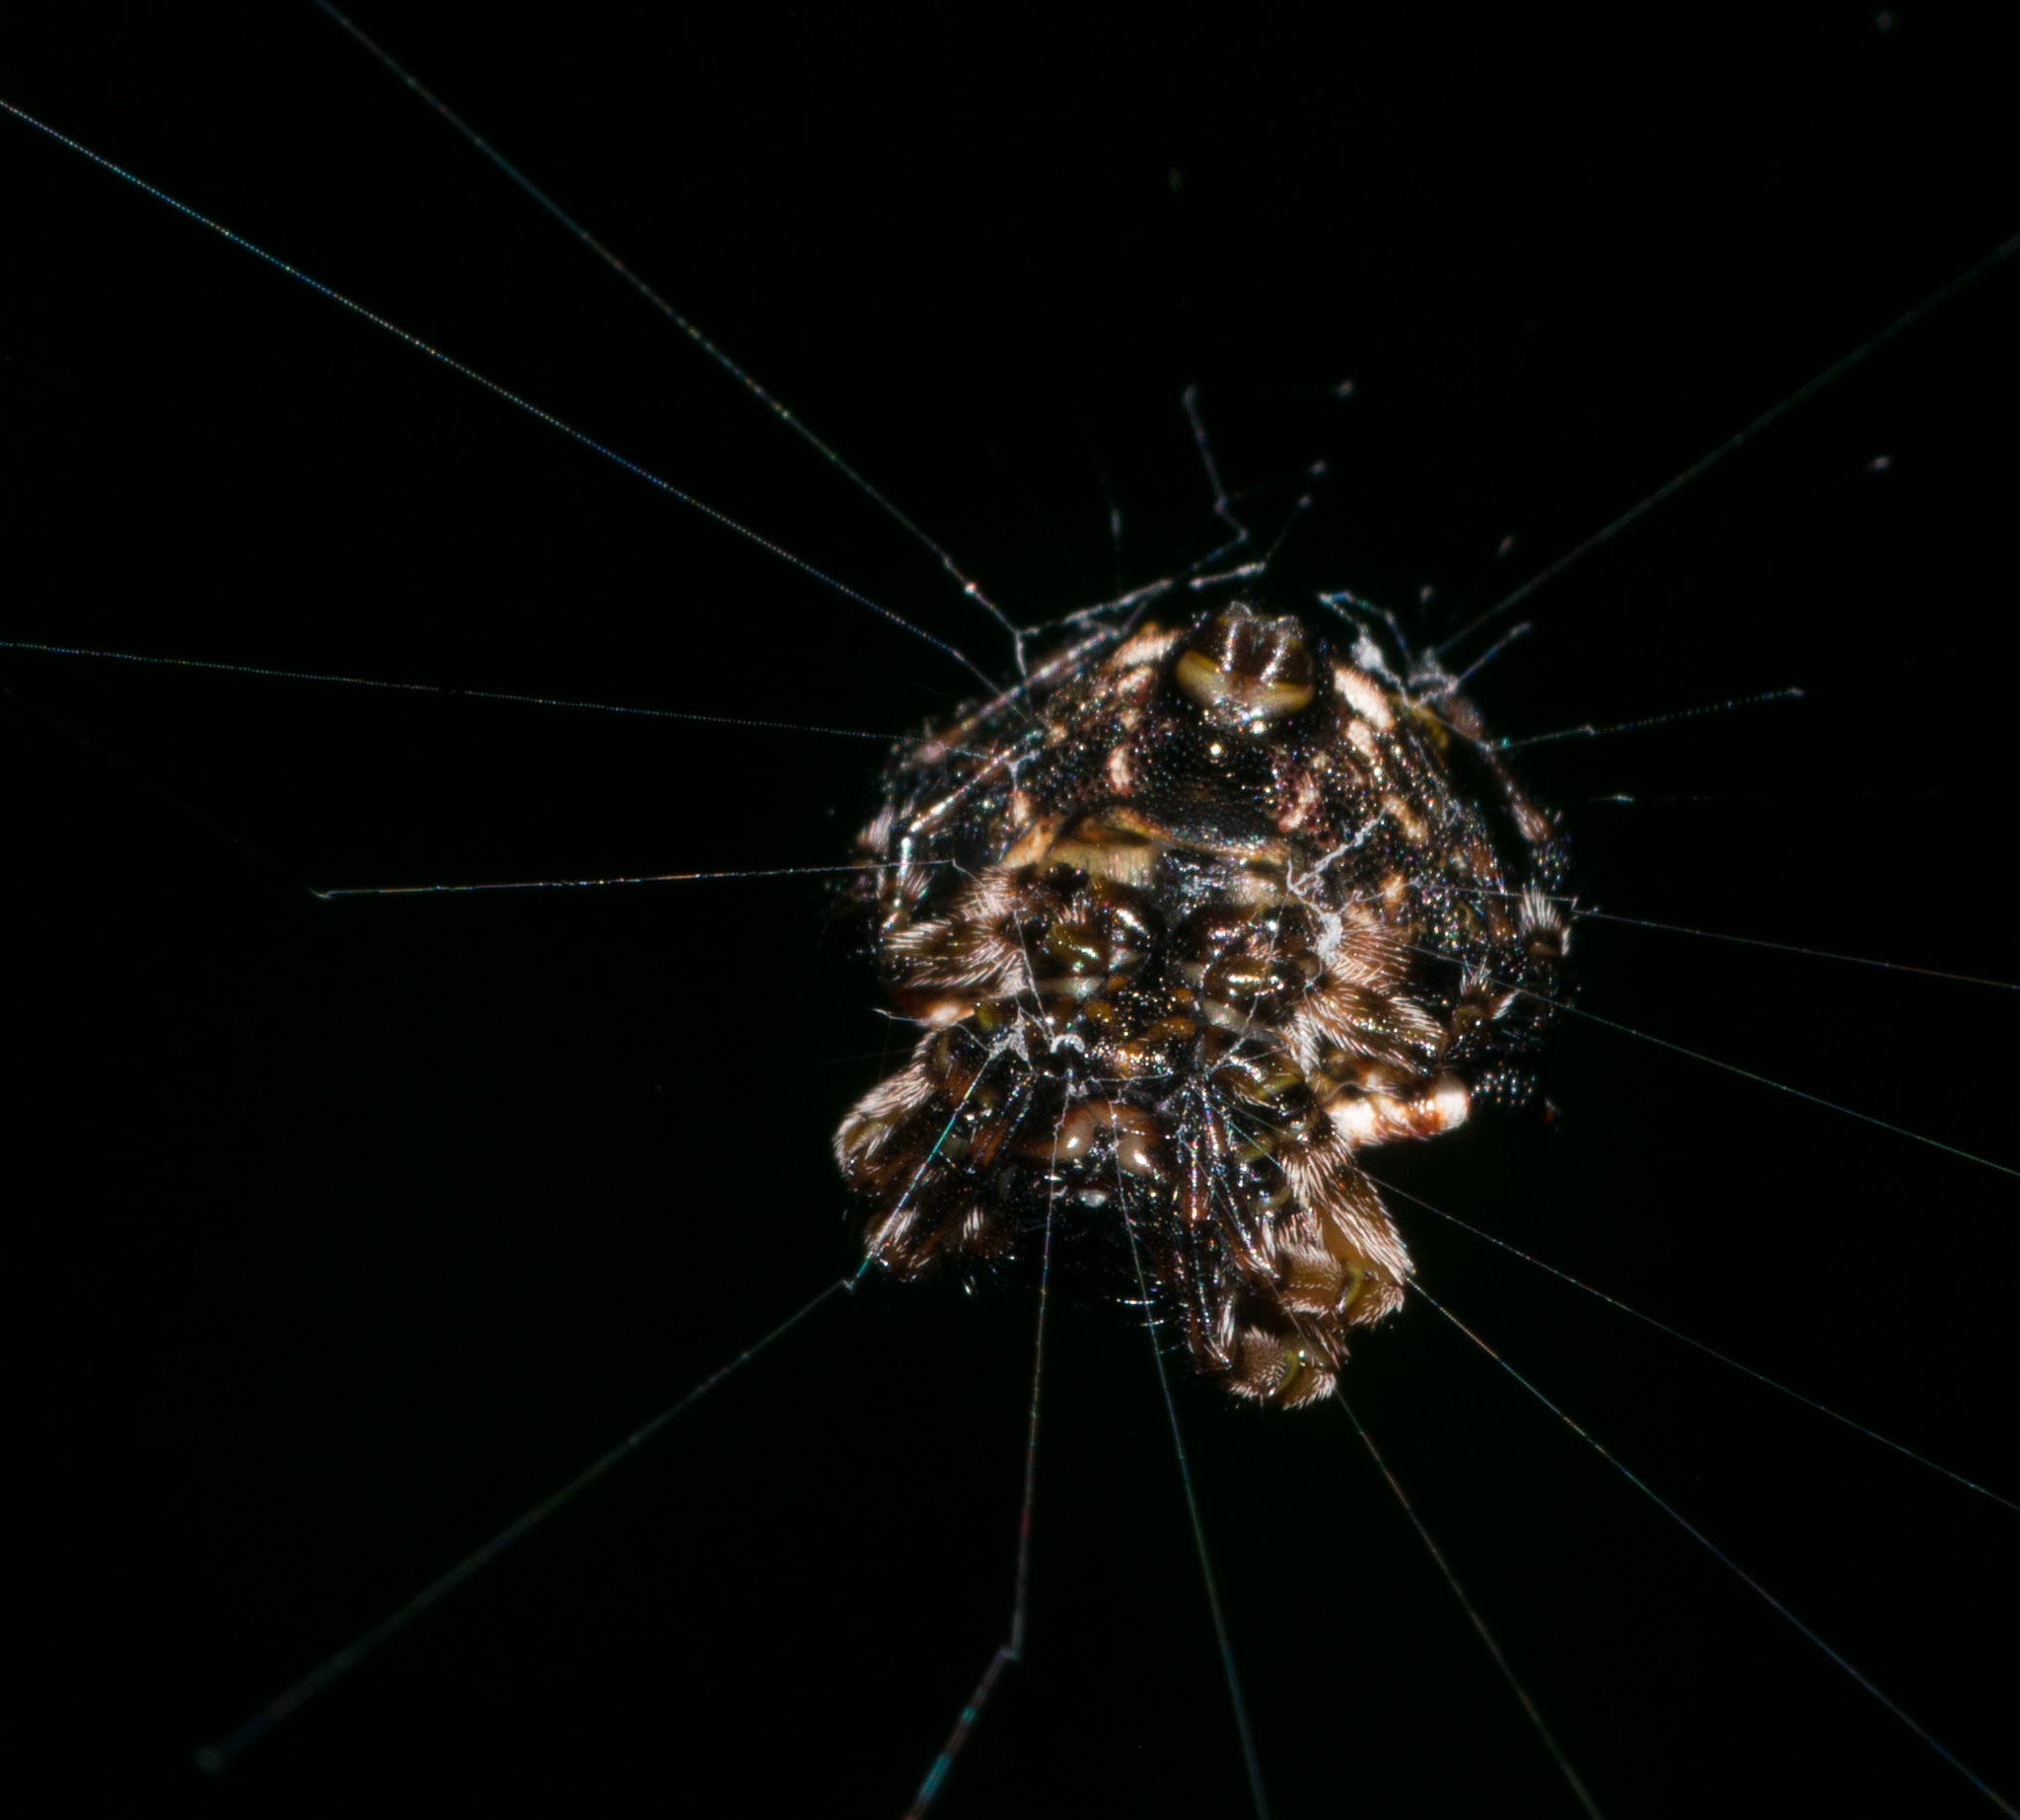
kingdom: Animalia
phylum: Arthropoda
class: Arachnida
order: Araneae
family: Araneidae
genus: Thelacantha
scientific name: Thelacantha brevispina
